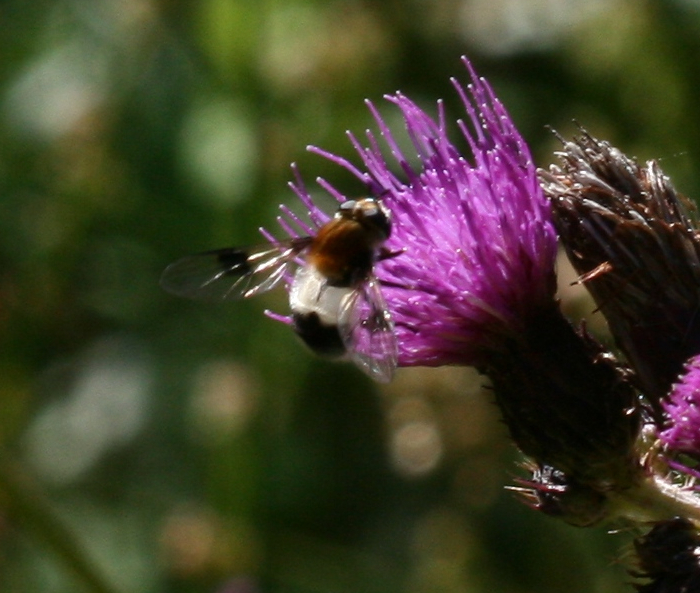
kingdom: Animalia
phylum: Arthropoda
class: Insecta
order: Diptera
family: Syrphidae
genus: Leucozona
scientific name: Leucozona lucorum
